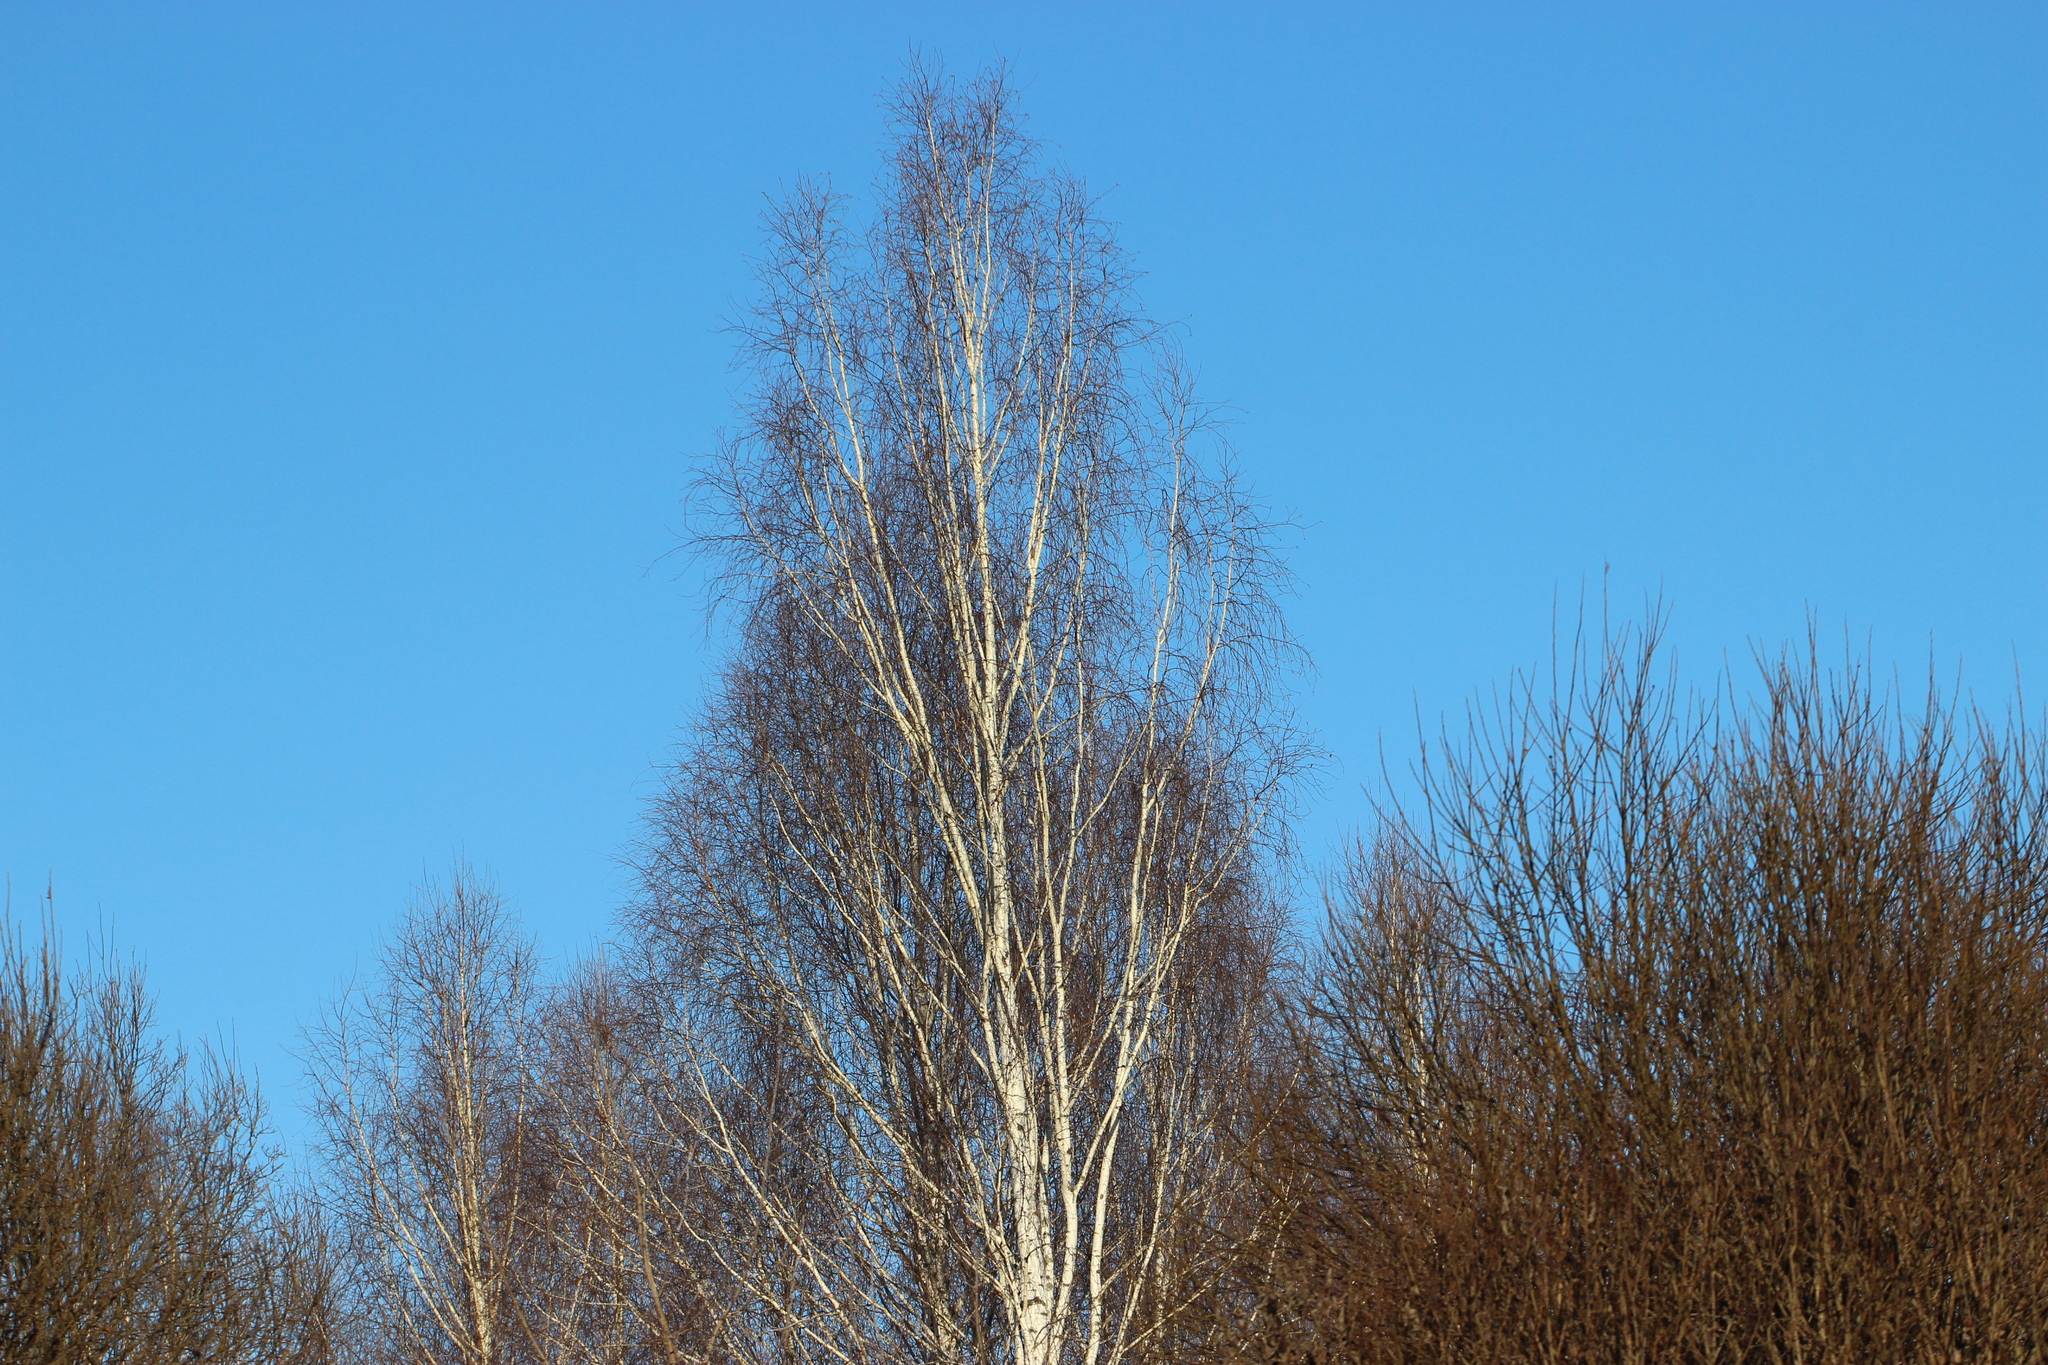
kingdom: Plantae
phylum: Tracheophyta
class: Magnoliopsida
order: Fagales
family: Betulaceae
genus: Betula
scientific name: Betula pendula
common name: Silver birch
